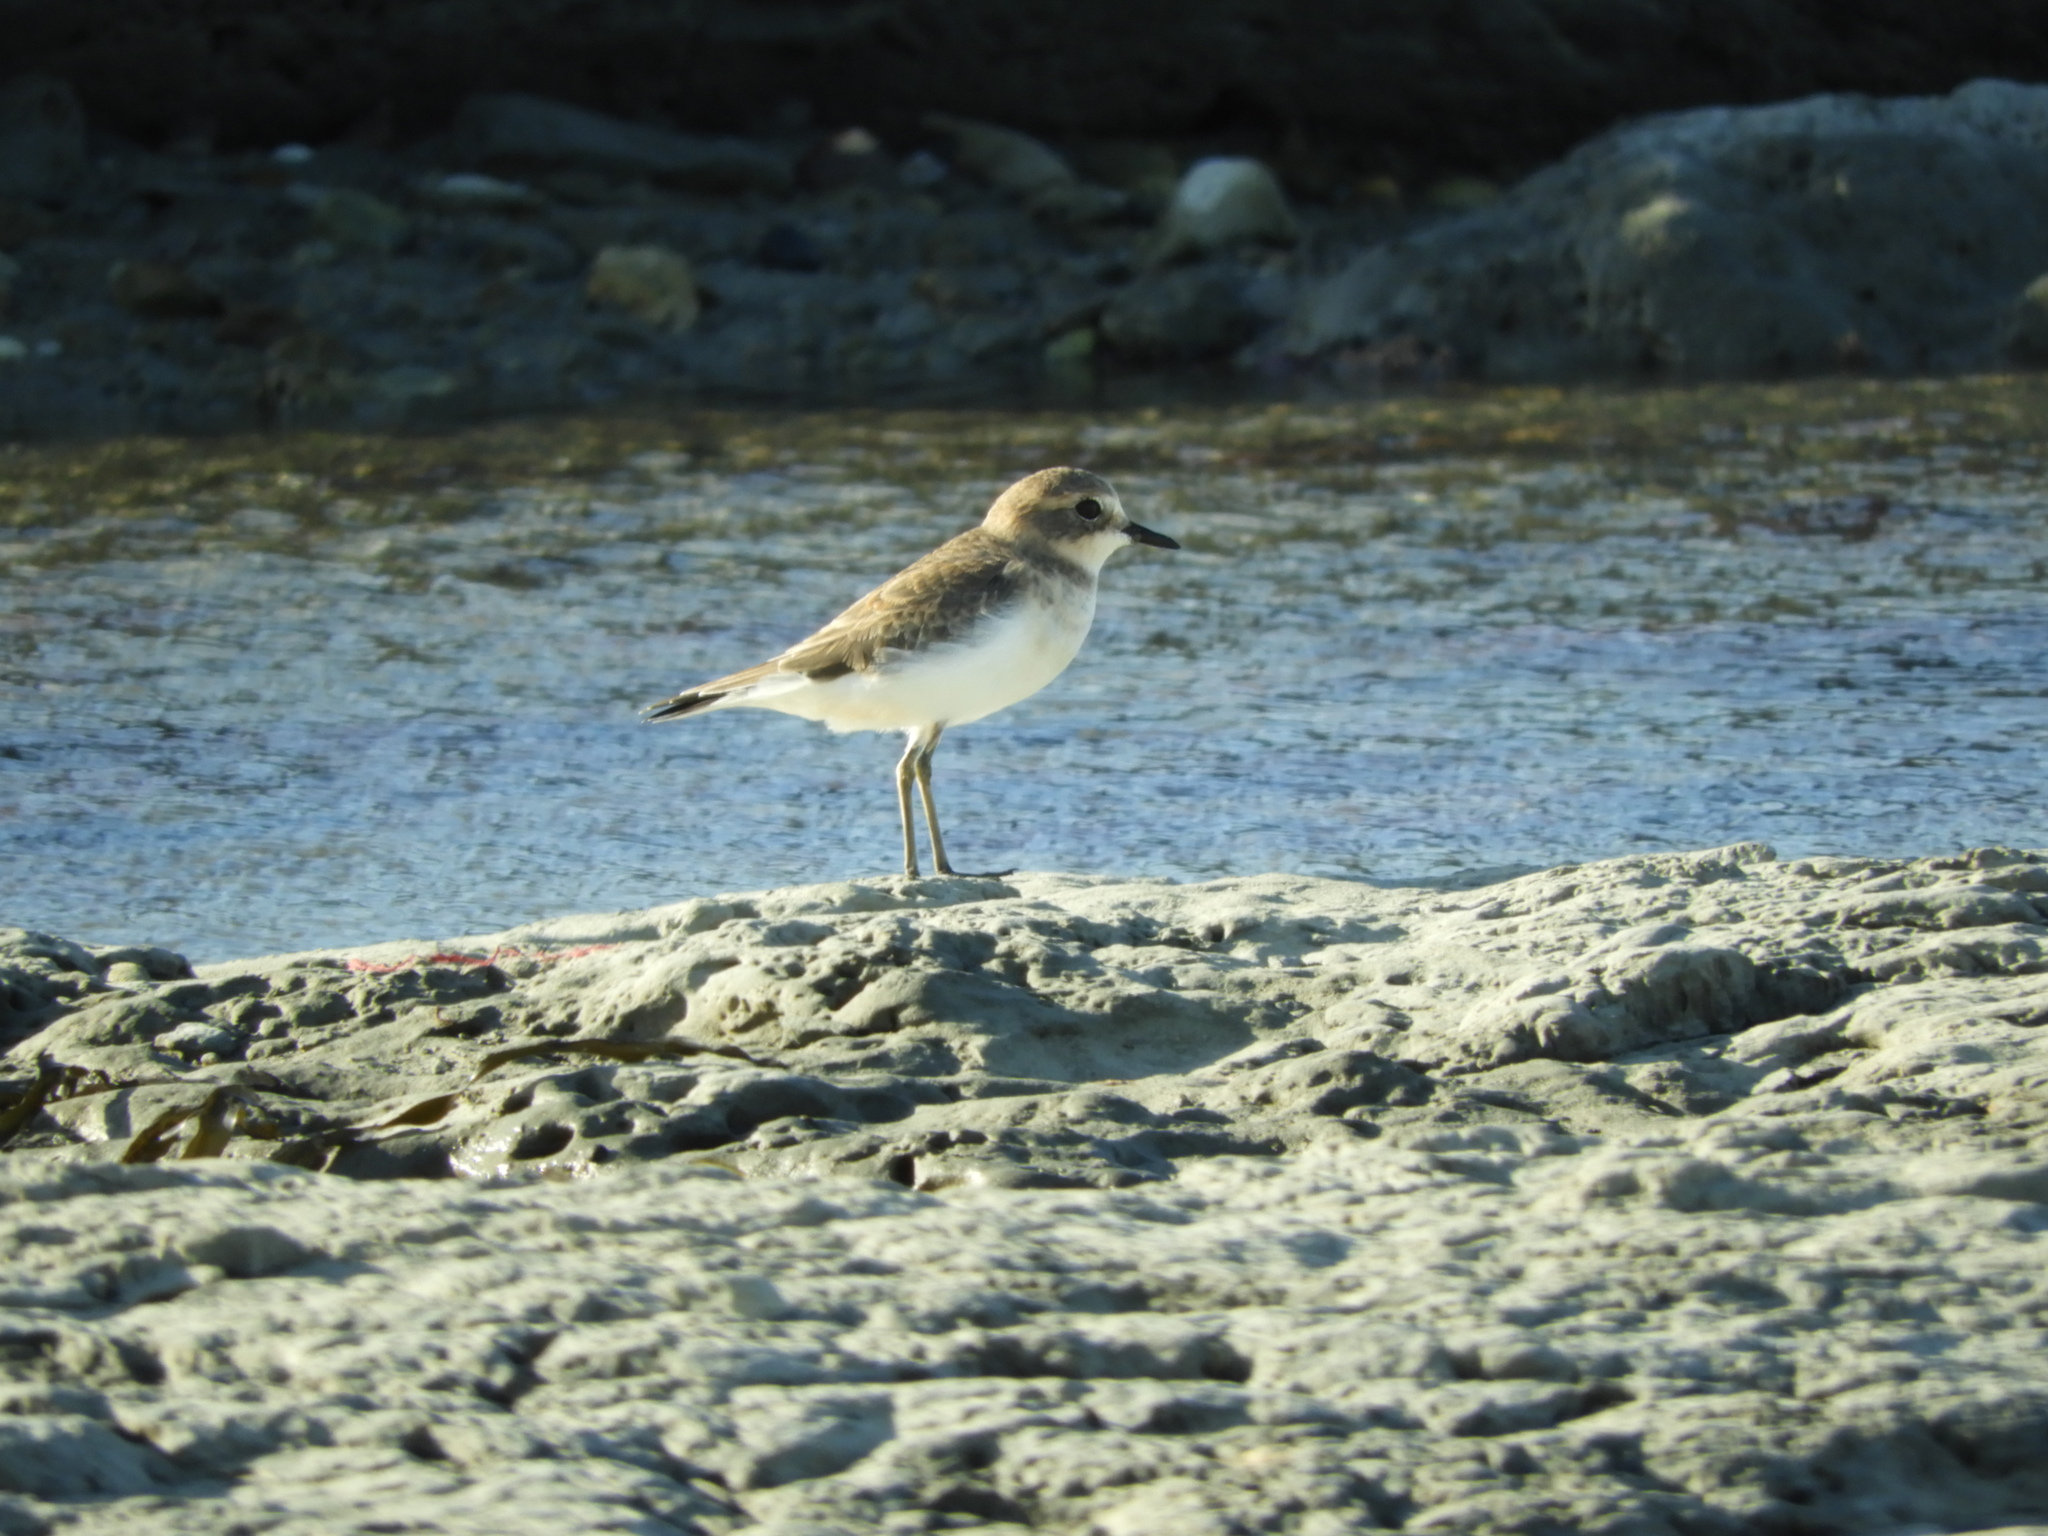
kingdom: Animalia
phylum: Chordata
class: Aves
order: Charadriiformes
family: Charadriidae
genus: Anarhynchus
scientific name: Anarhynchus
